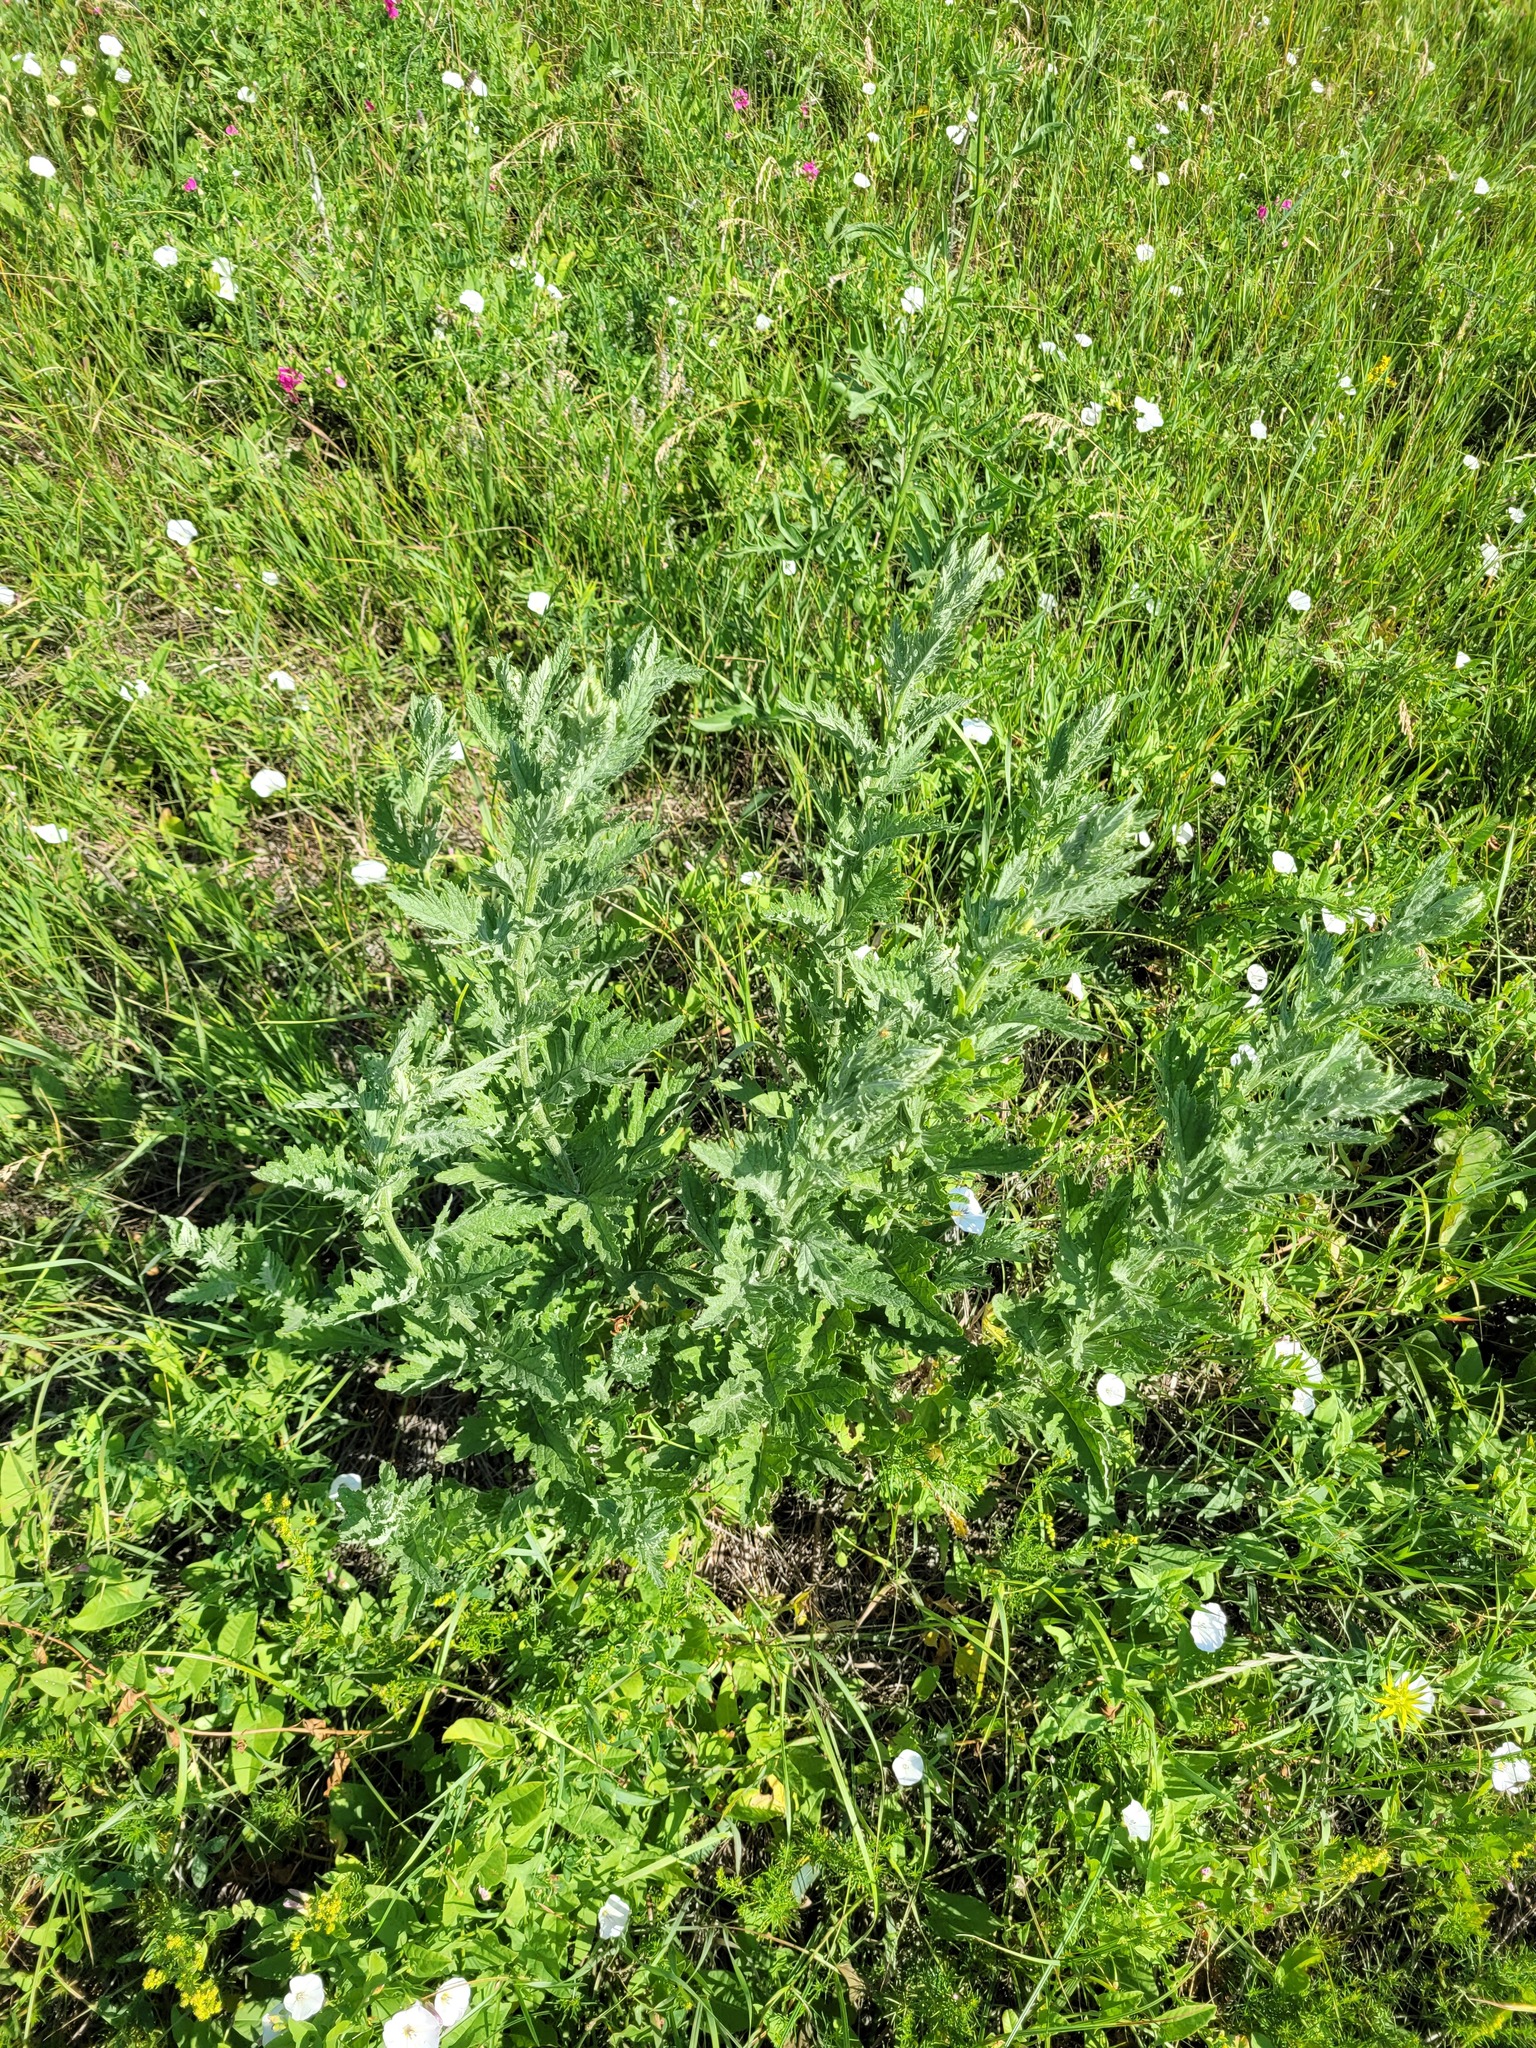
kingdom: Plantae
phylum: Tracheophyta
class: Magnoliopsida
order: Asterales
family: Asteraceae
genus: Jacobaea
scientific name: Jacobaea erucifolia
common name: Hoary ragwort
